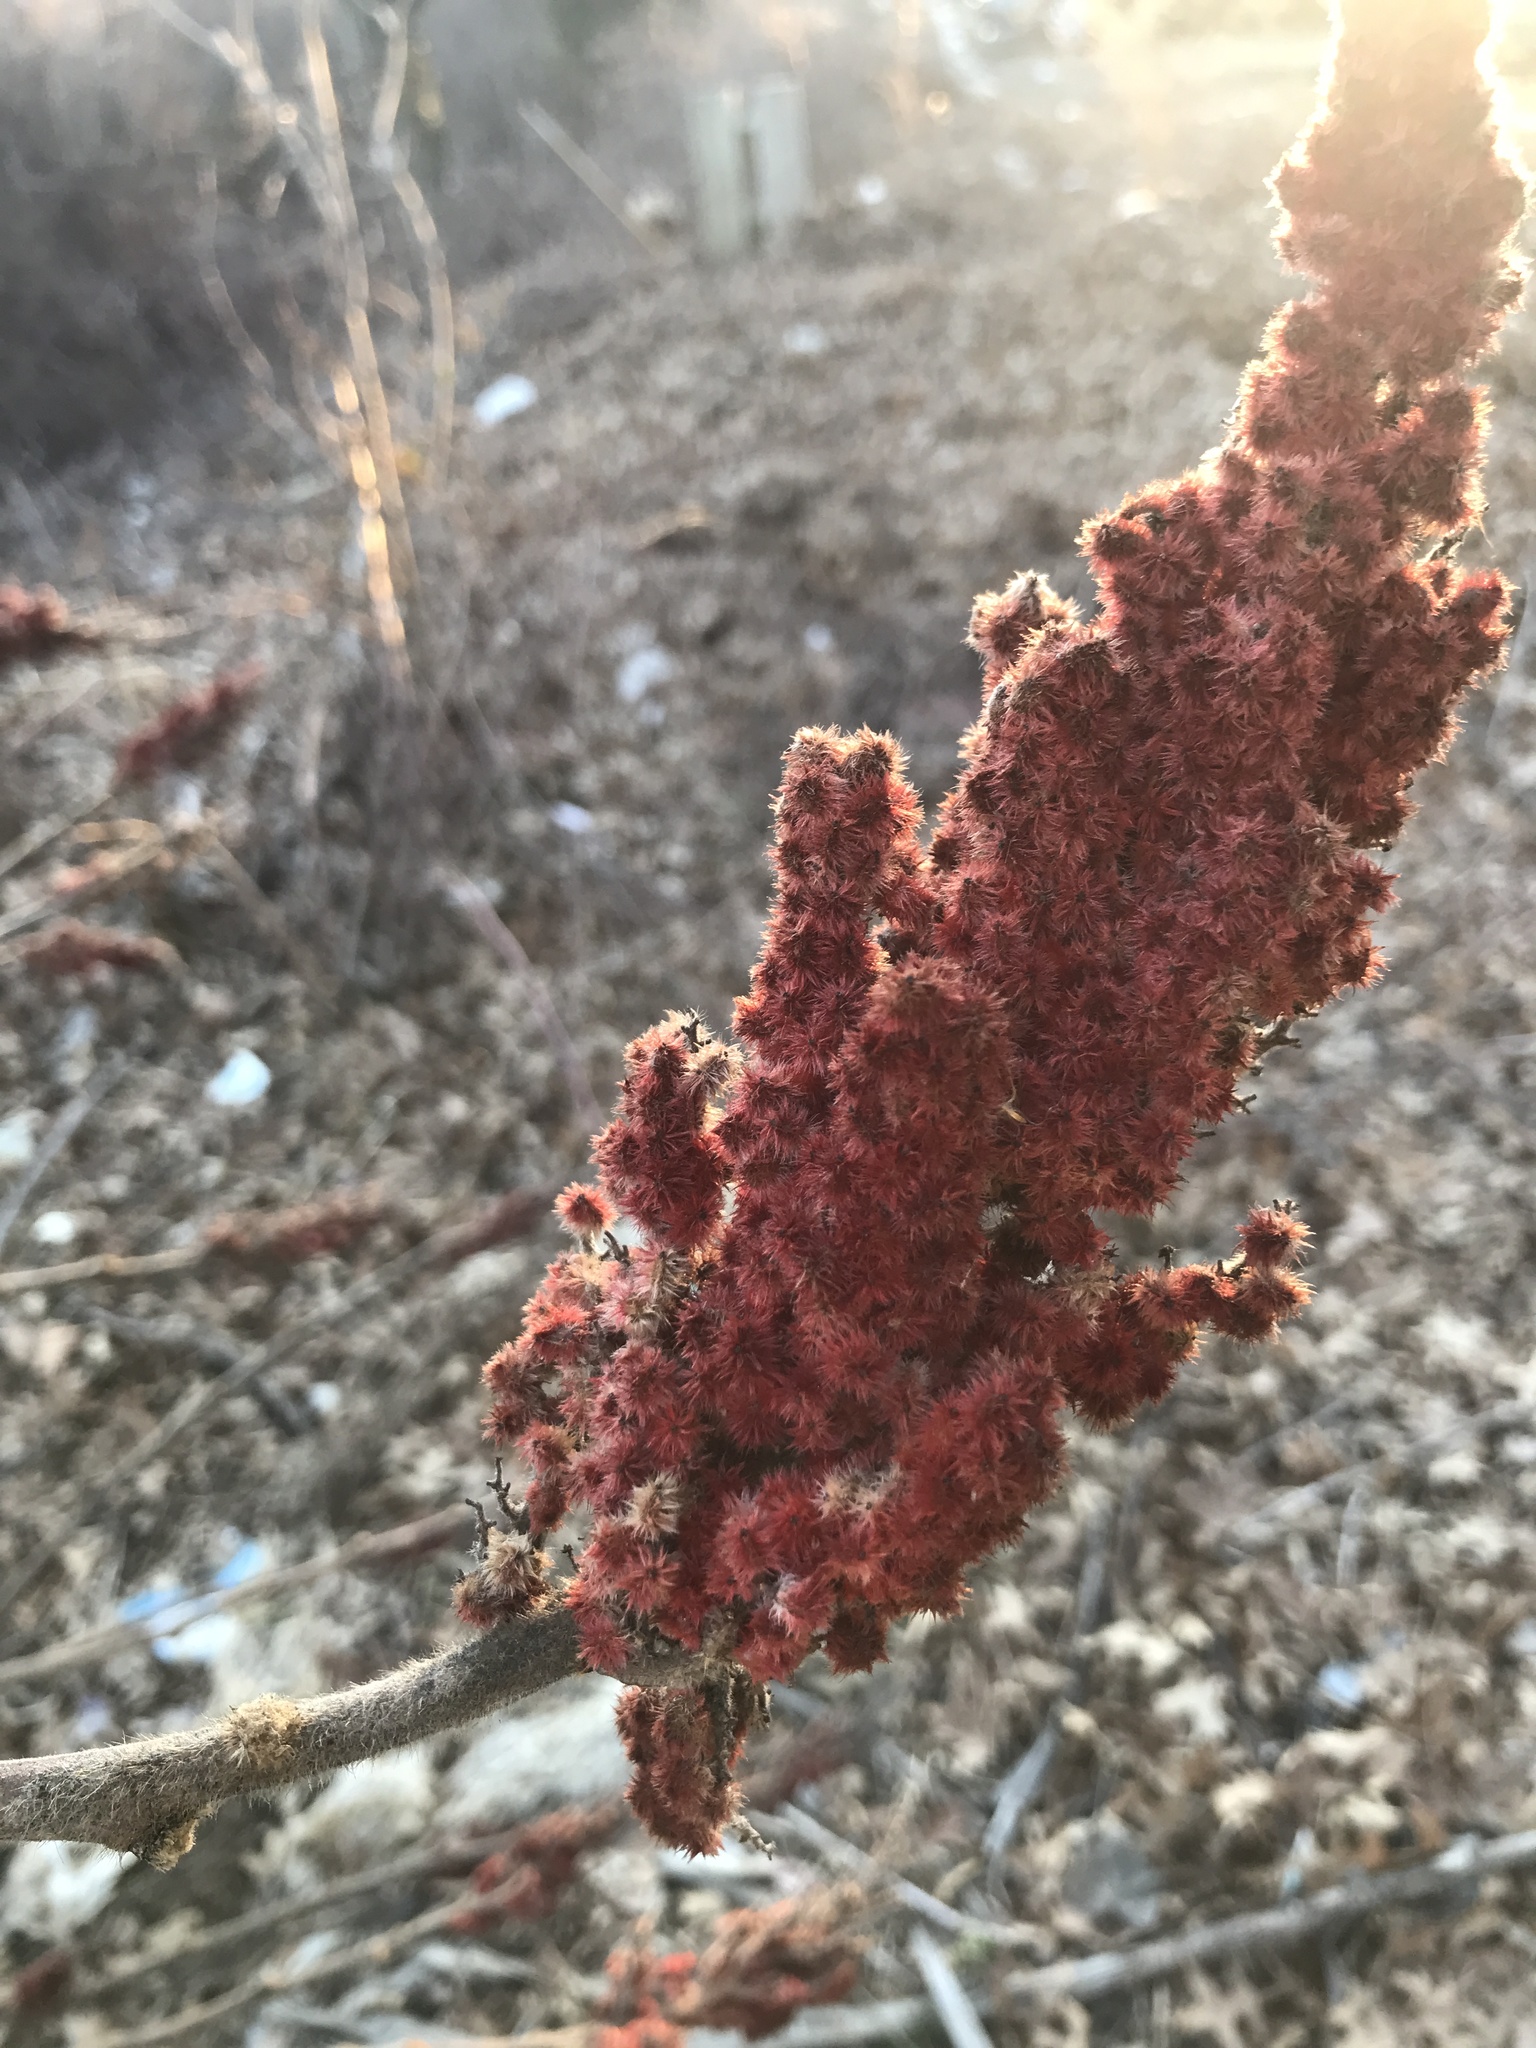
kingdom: Plantae
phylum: Tracheophyta
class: Magnoliopsida
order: Sapindales
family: Anacardiaceae
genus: Rhus
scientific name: Rhus typhina
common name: Staghorn sumac
